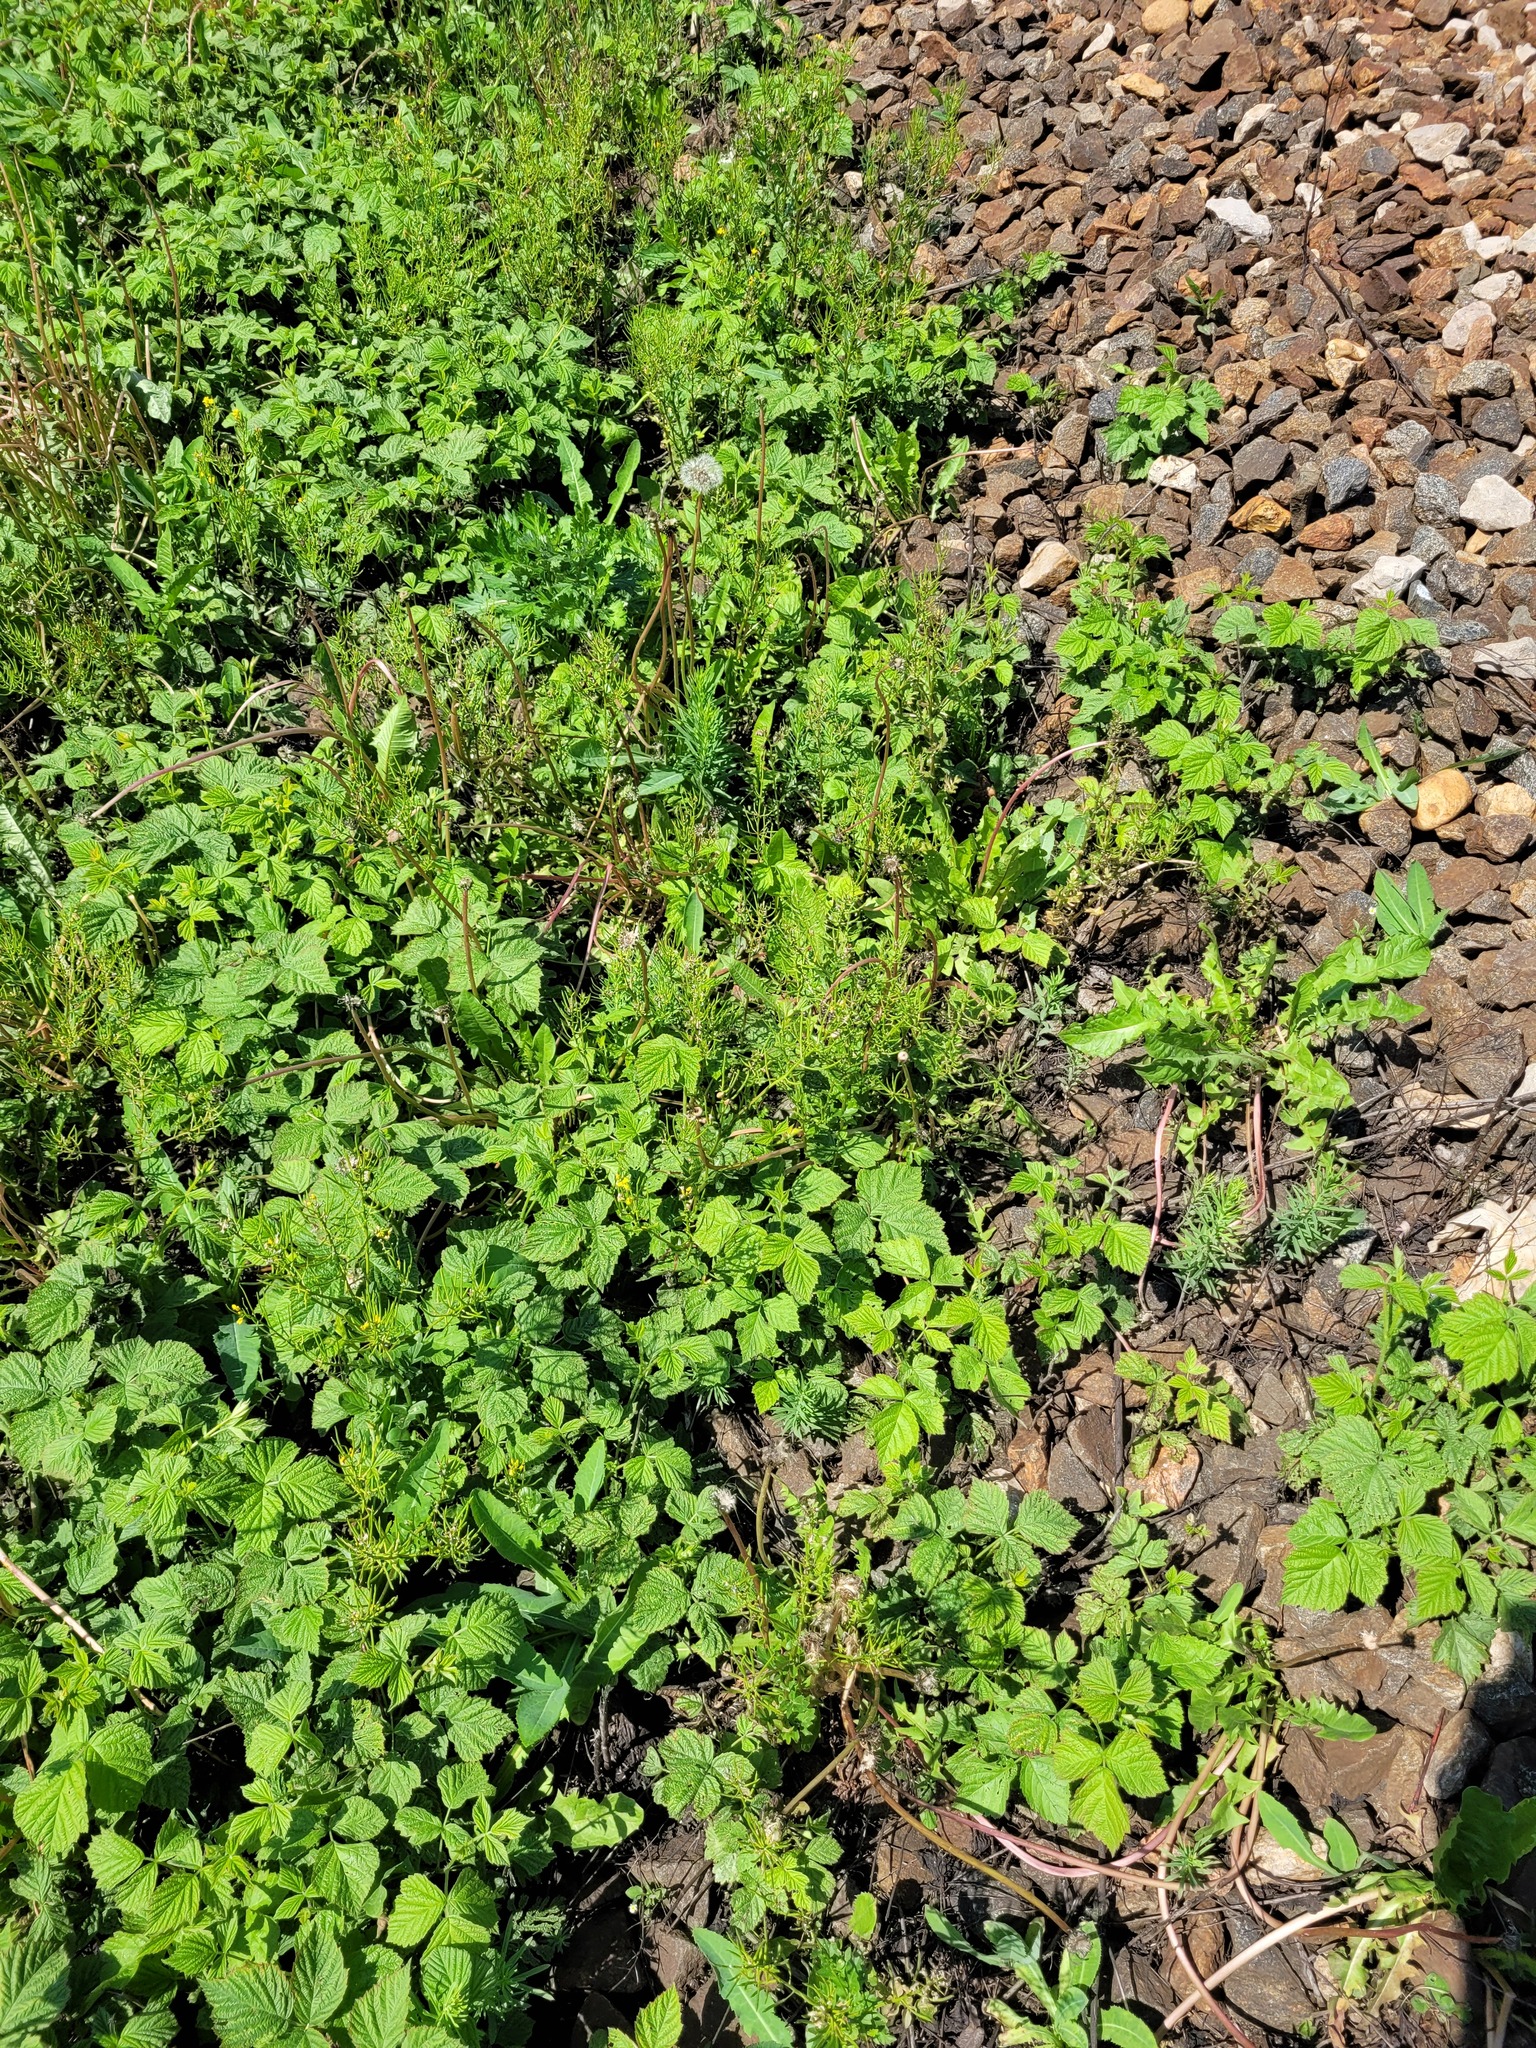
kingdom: Plantae
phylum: Tracheophyta
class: Magnoliopsida
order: Brassicales
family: Brassicaceae
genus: Barbarea
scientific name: Barbarea vulgaris
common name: Cressy-greens
